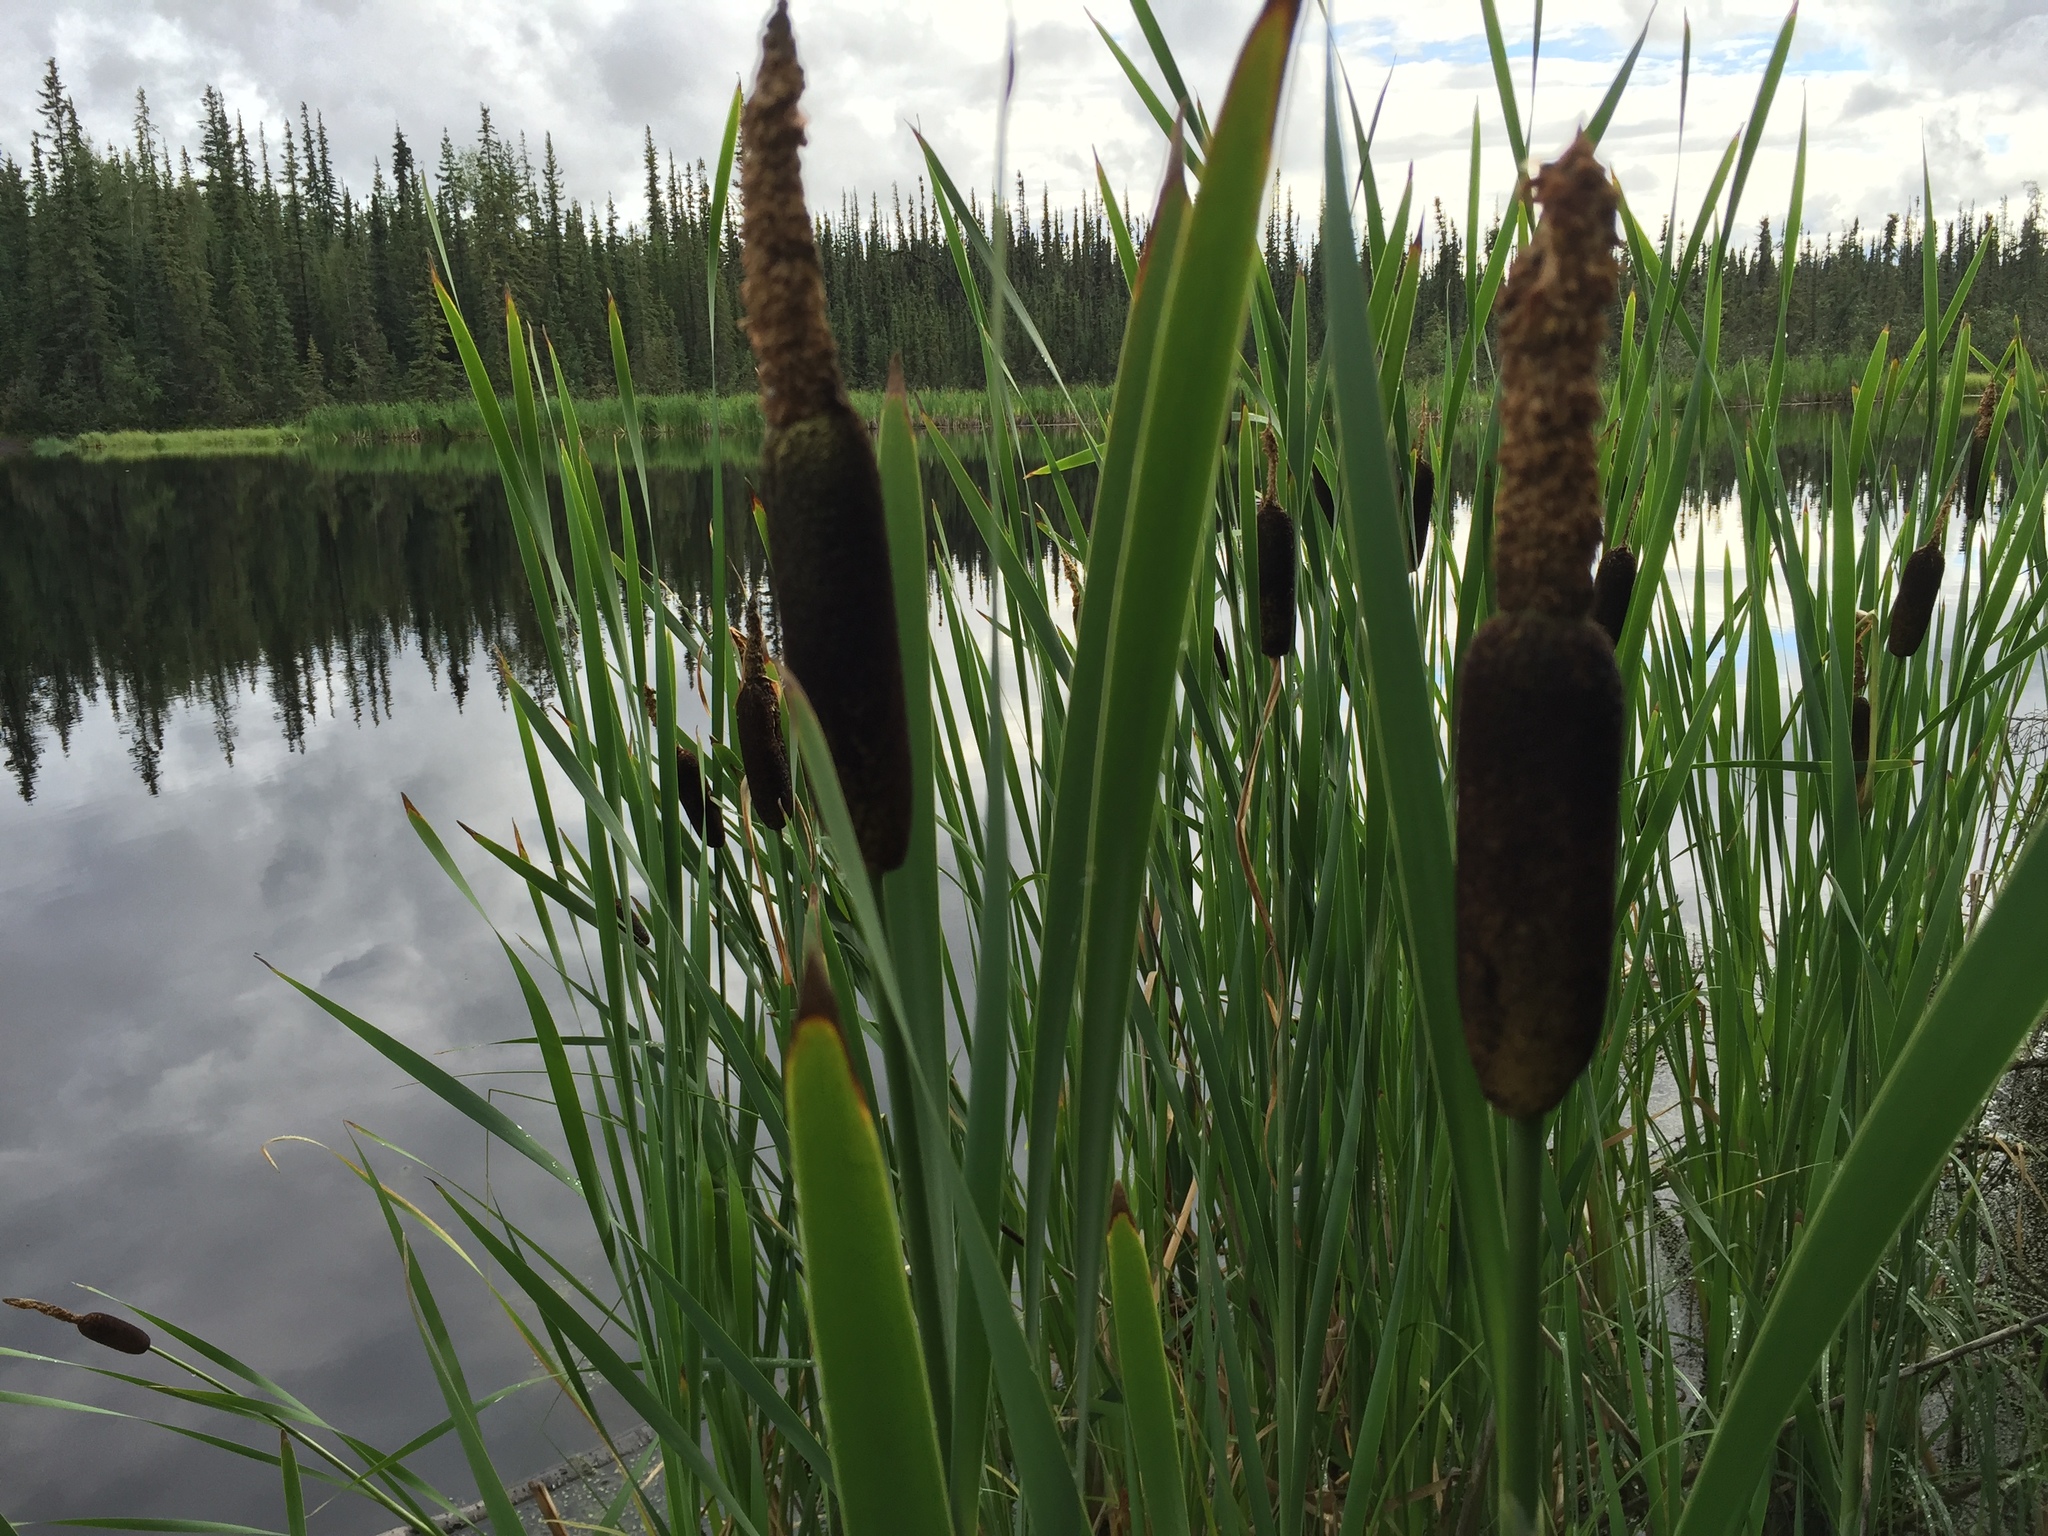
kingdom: Plantae
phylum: Tracheophyta
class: Liliopsida
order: Poales
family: Typhaceae
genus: Typha
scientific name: Typha latifolia
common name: Broadleaf cattail
